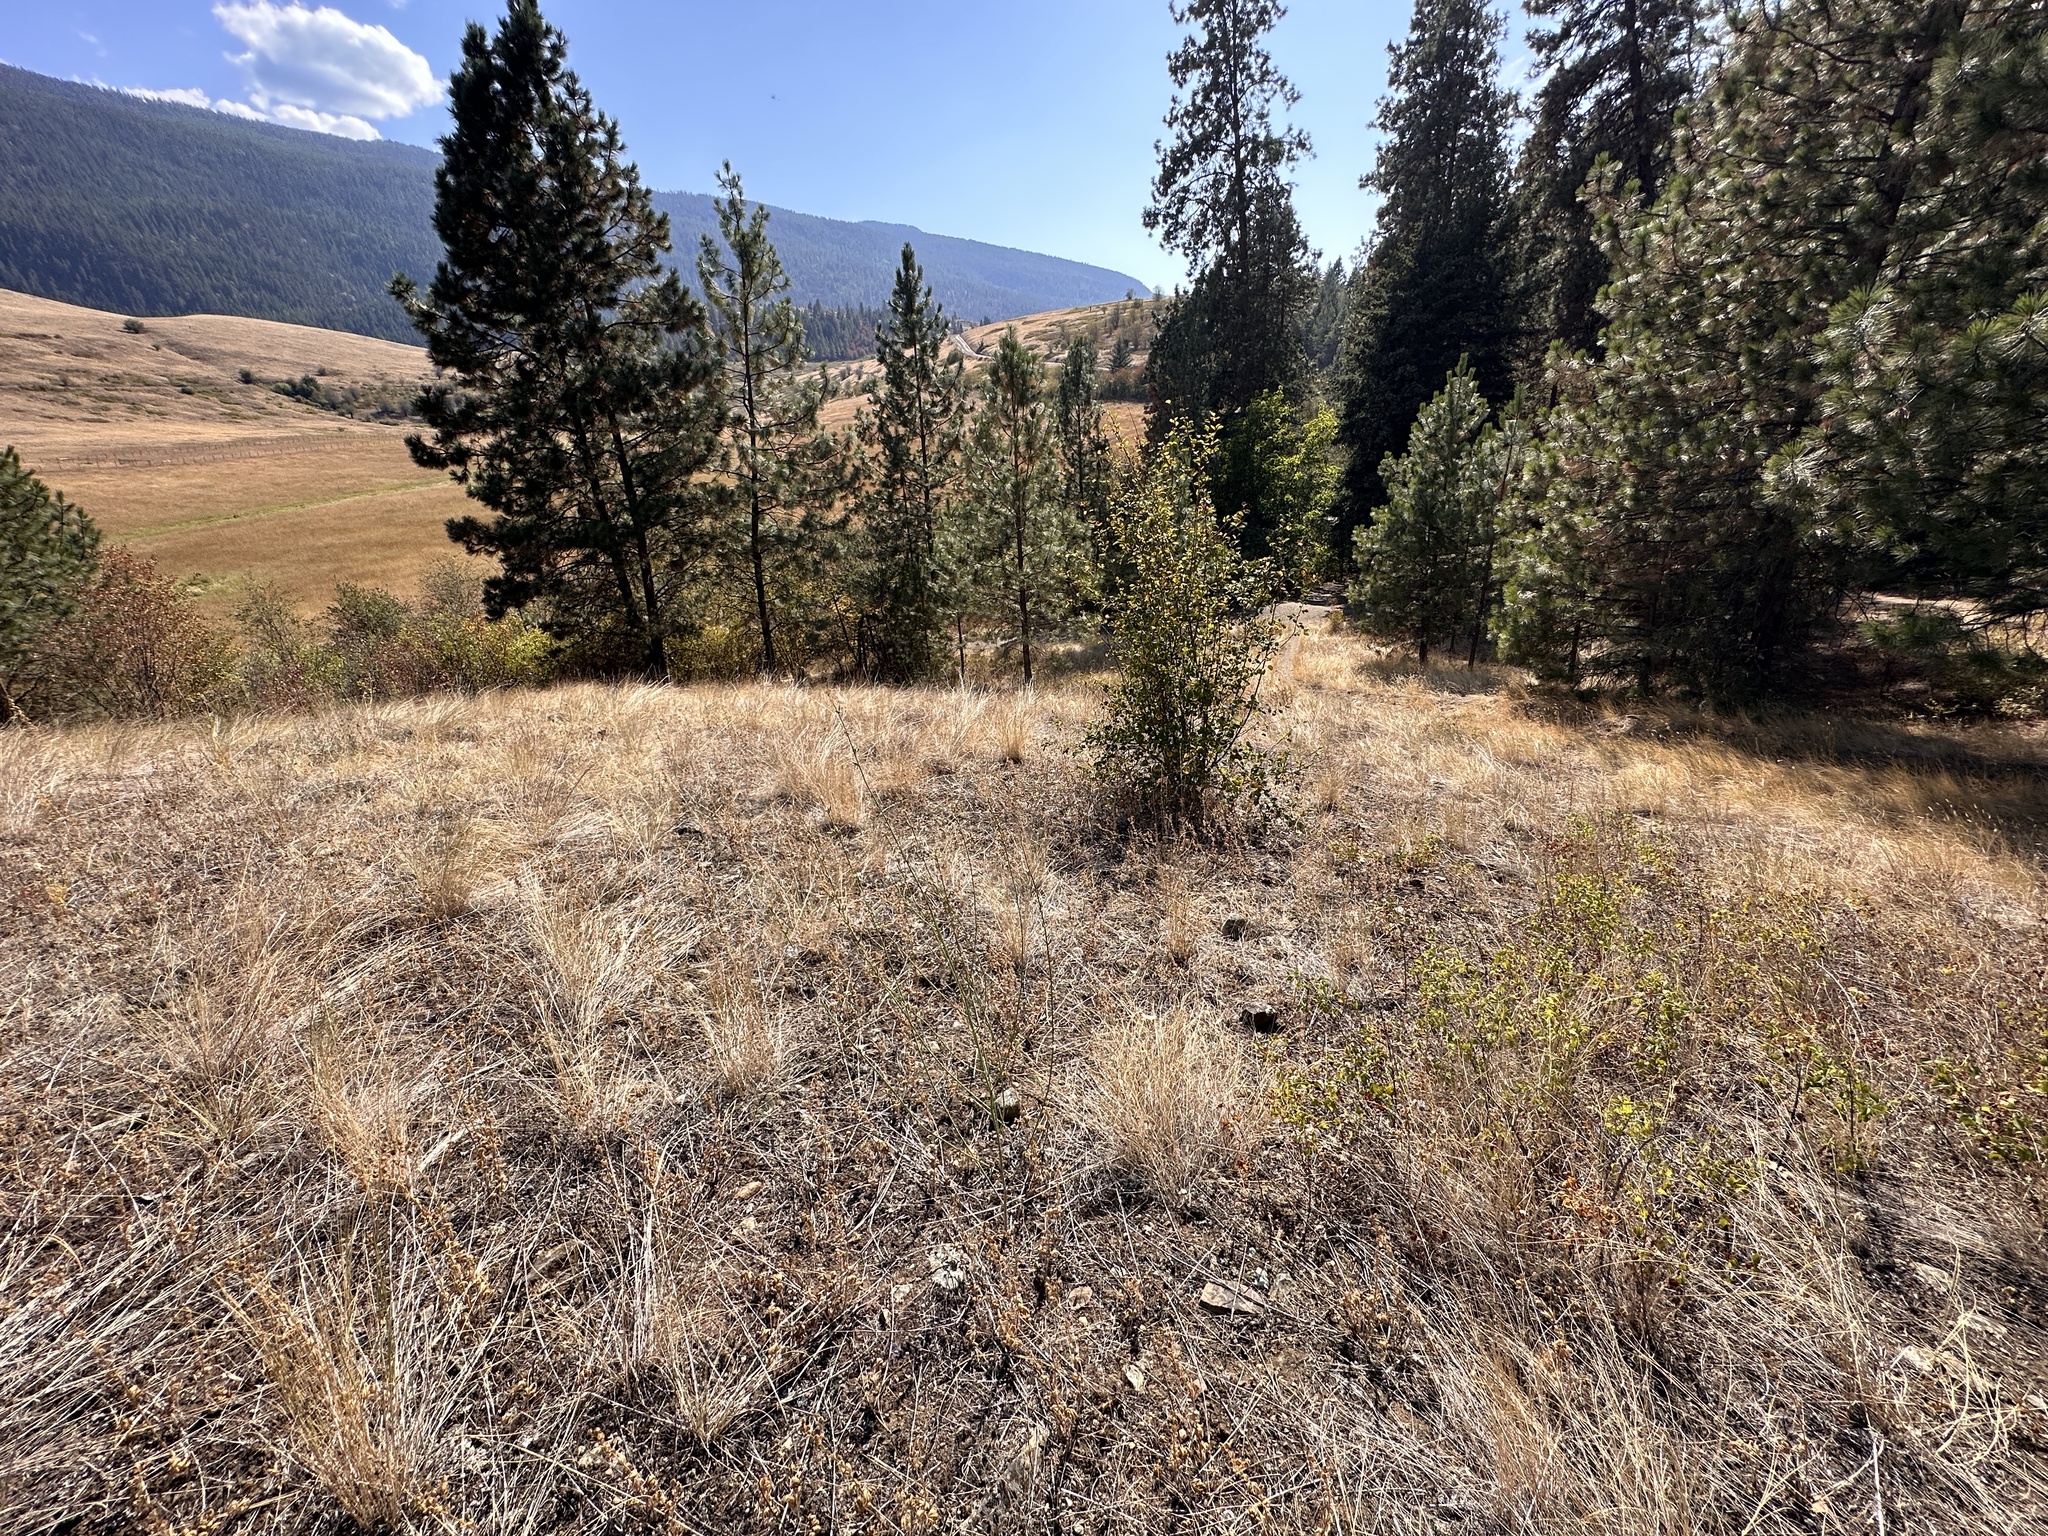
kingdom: Plantae
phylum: Tracheophyta
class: Magnoliopsida
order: Asterales
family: Asteraceae
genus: Chondrilla
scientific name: Chondrilla juncea
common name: Skeleton weed
